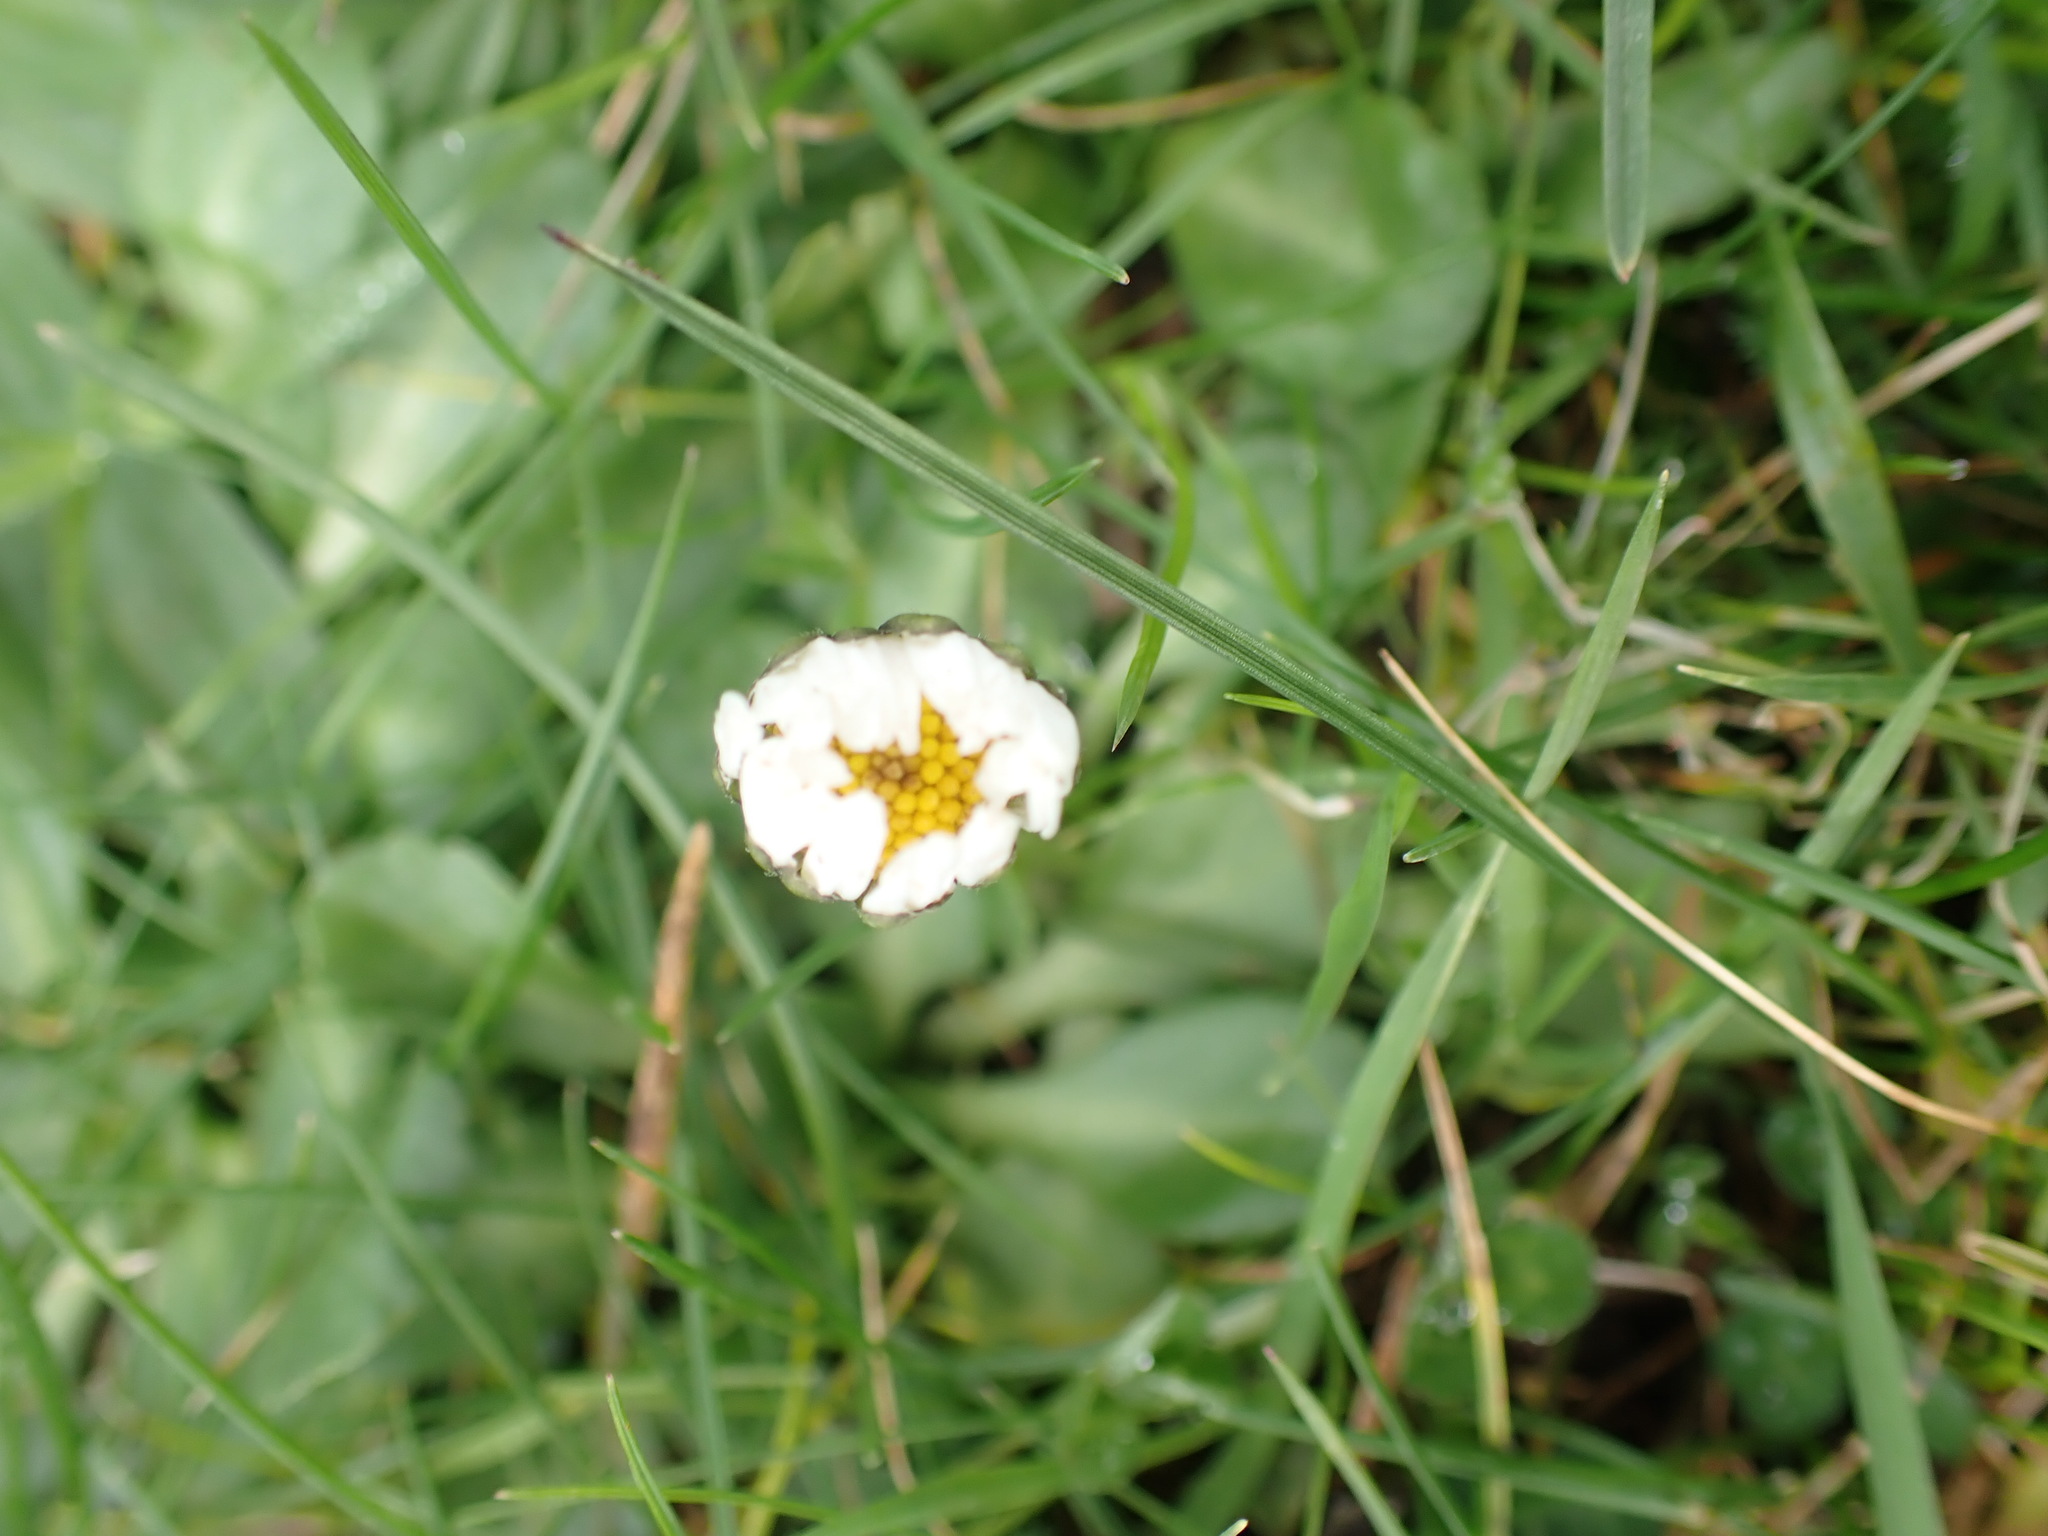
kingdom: Plantae
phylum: Tracheophyta
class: Magnoliopsida
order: Asterales
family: Asteraceae
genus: Bellis
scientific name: Bellis perennis
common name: Lawndaisy
